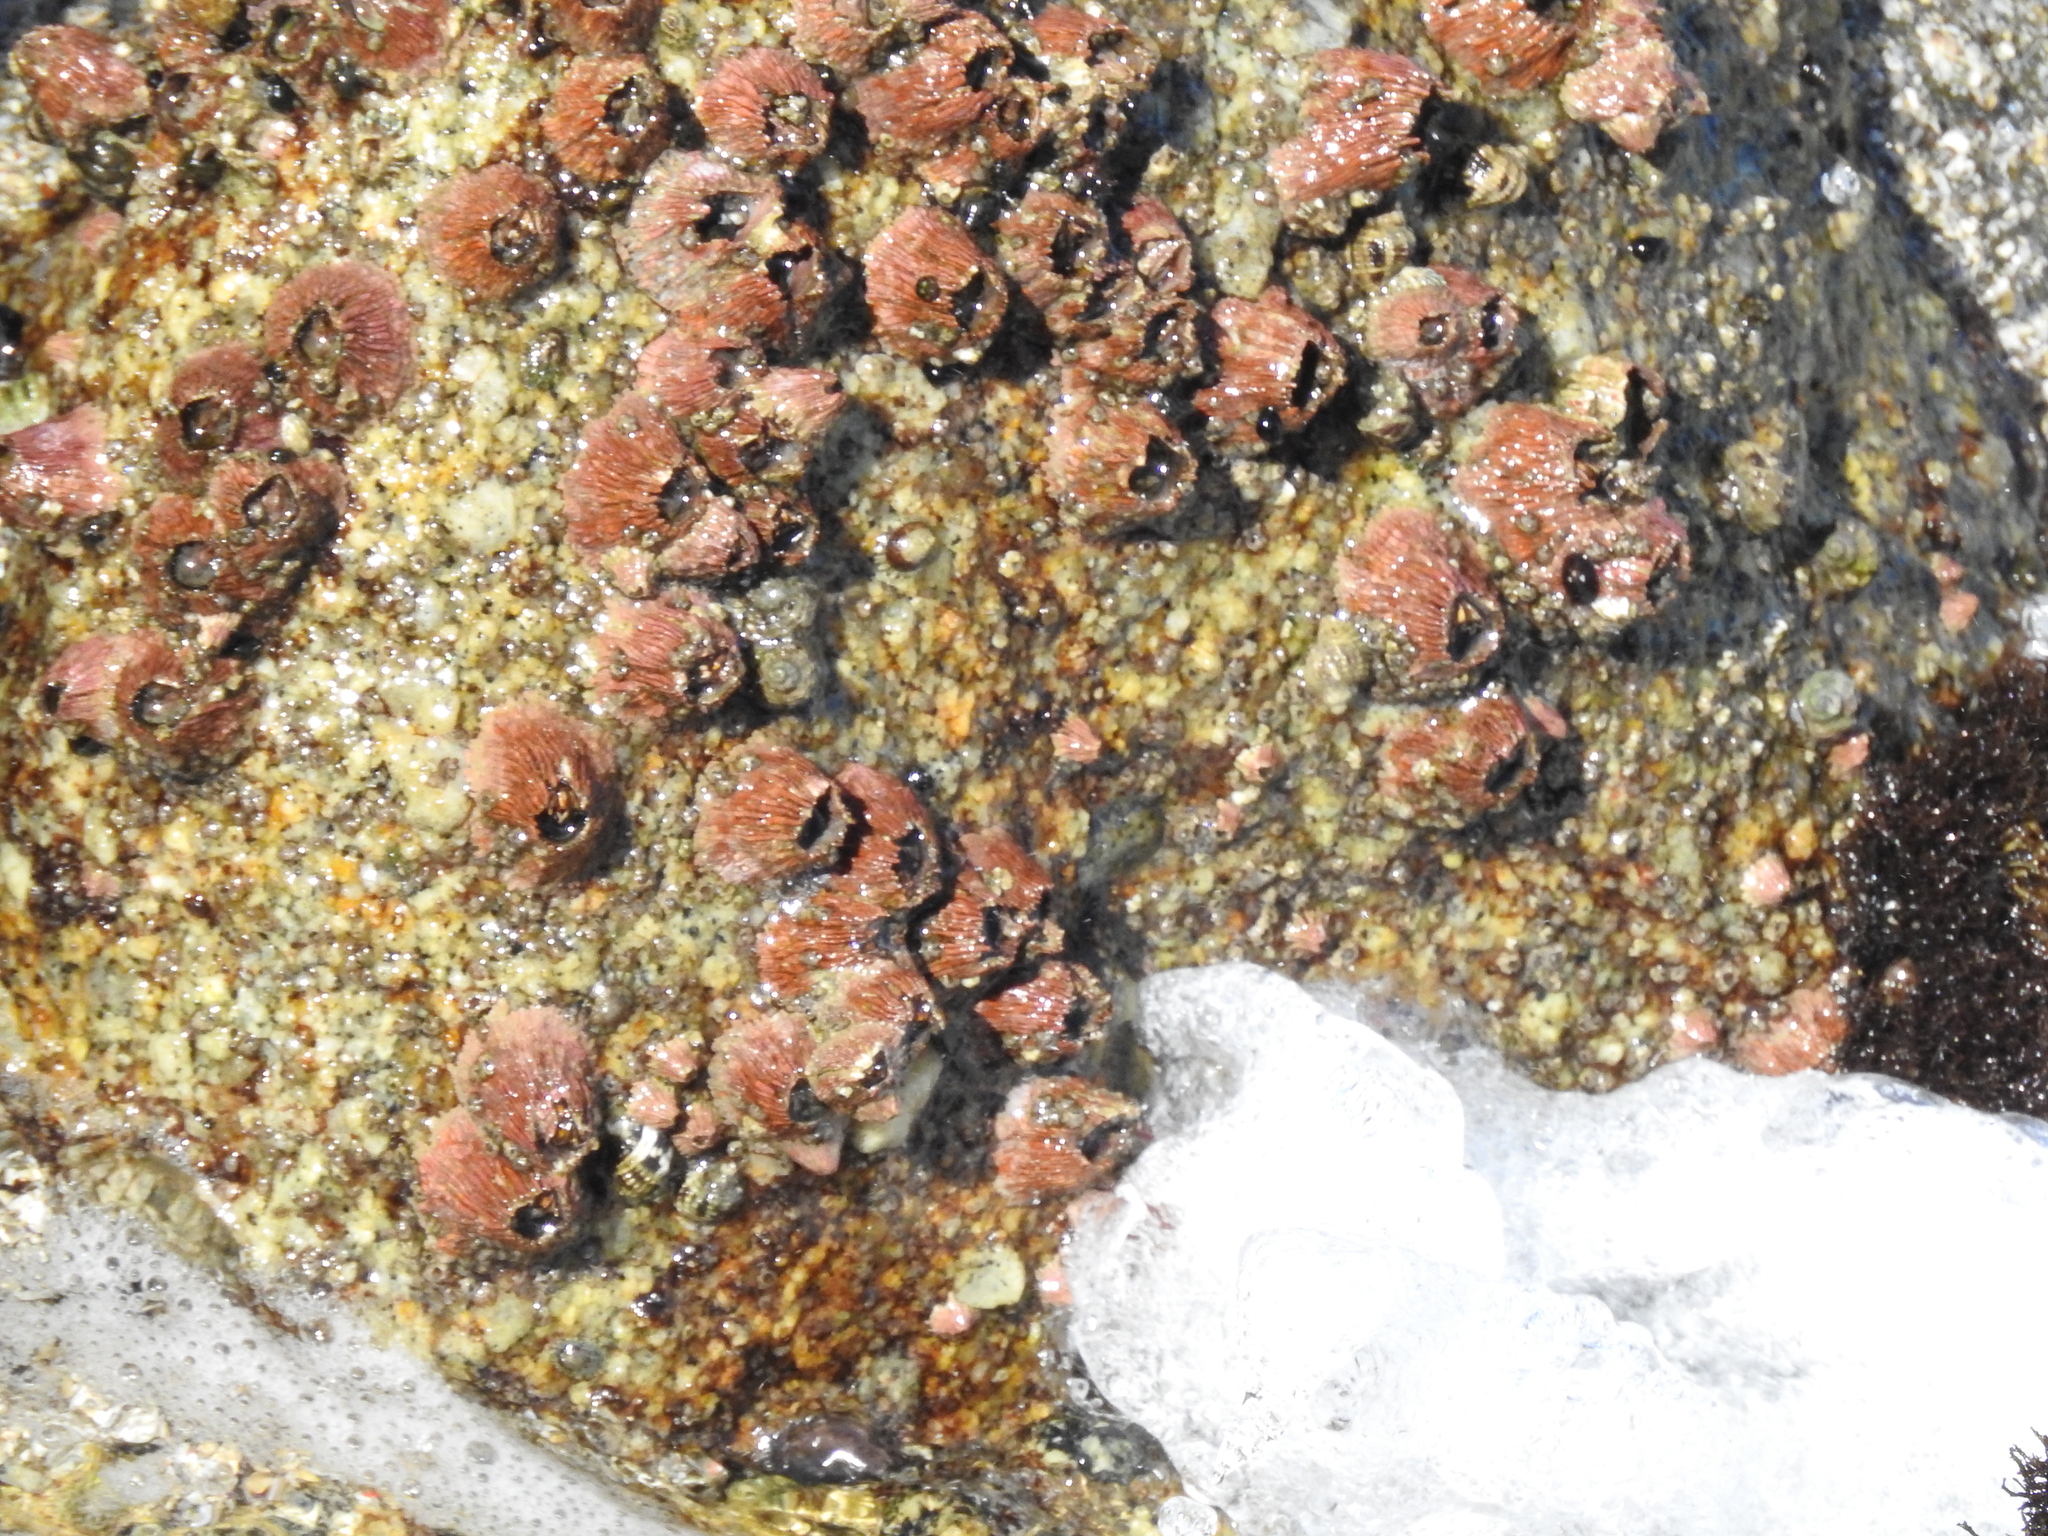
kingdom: Animalia
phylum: Arthropoda
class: Maxillopoda
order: Sessilia
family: Tetraclitidae
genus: Tetraclita
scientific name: Tetraclita rubescens
